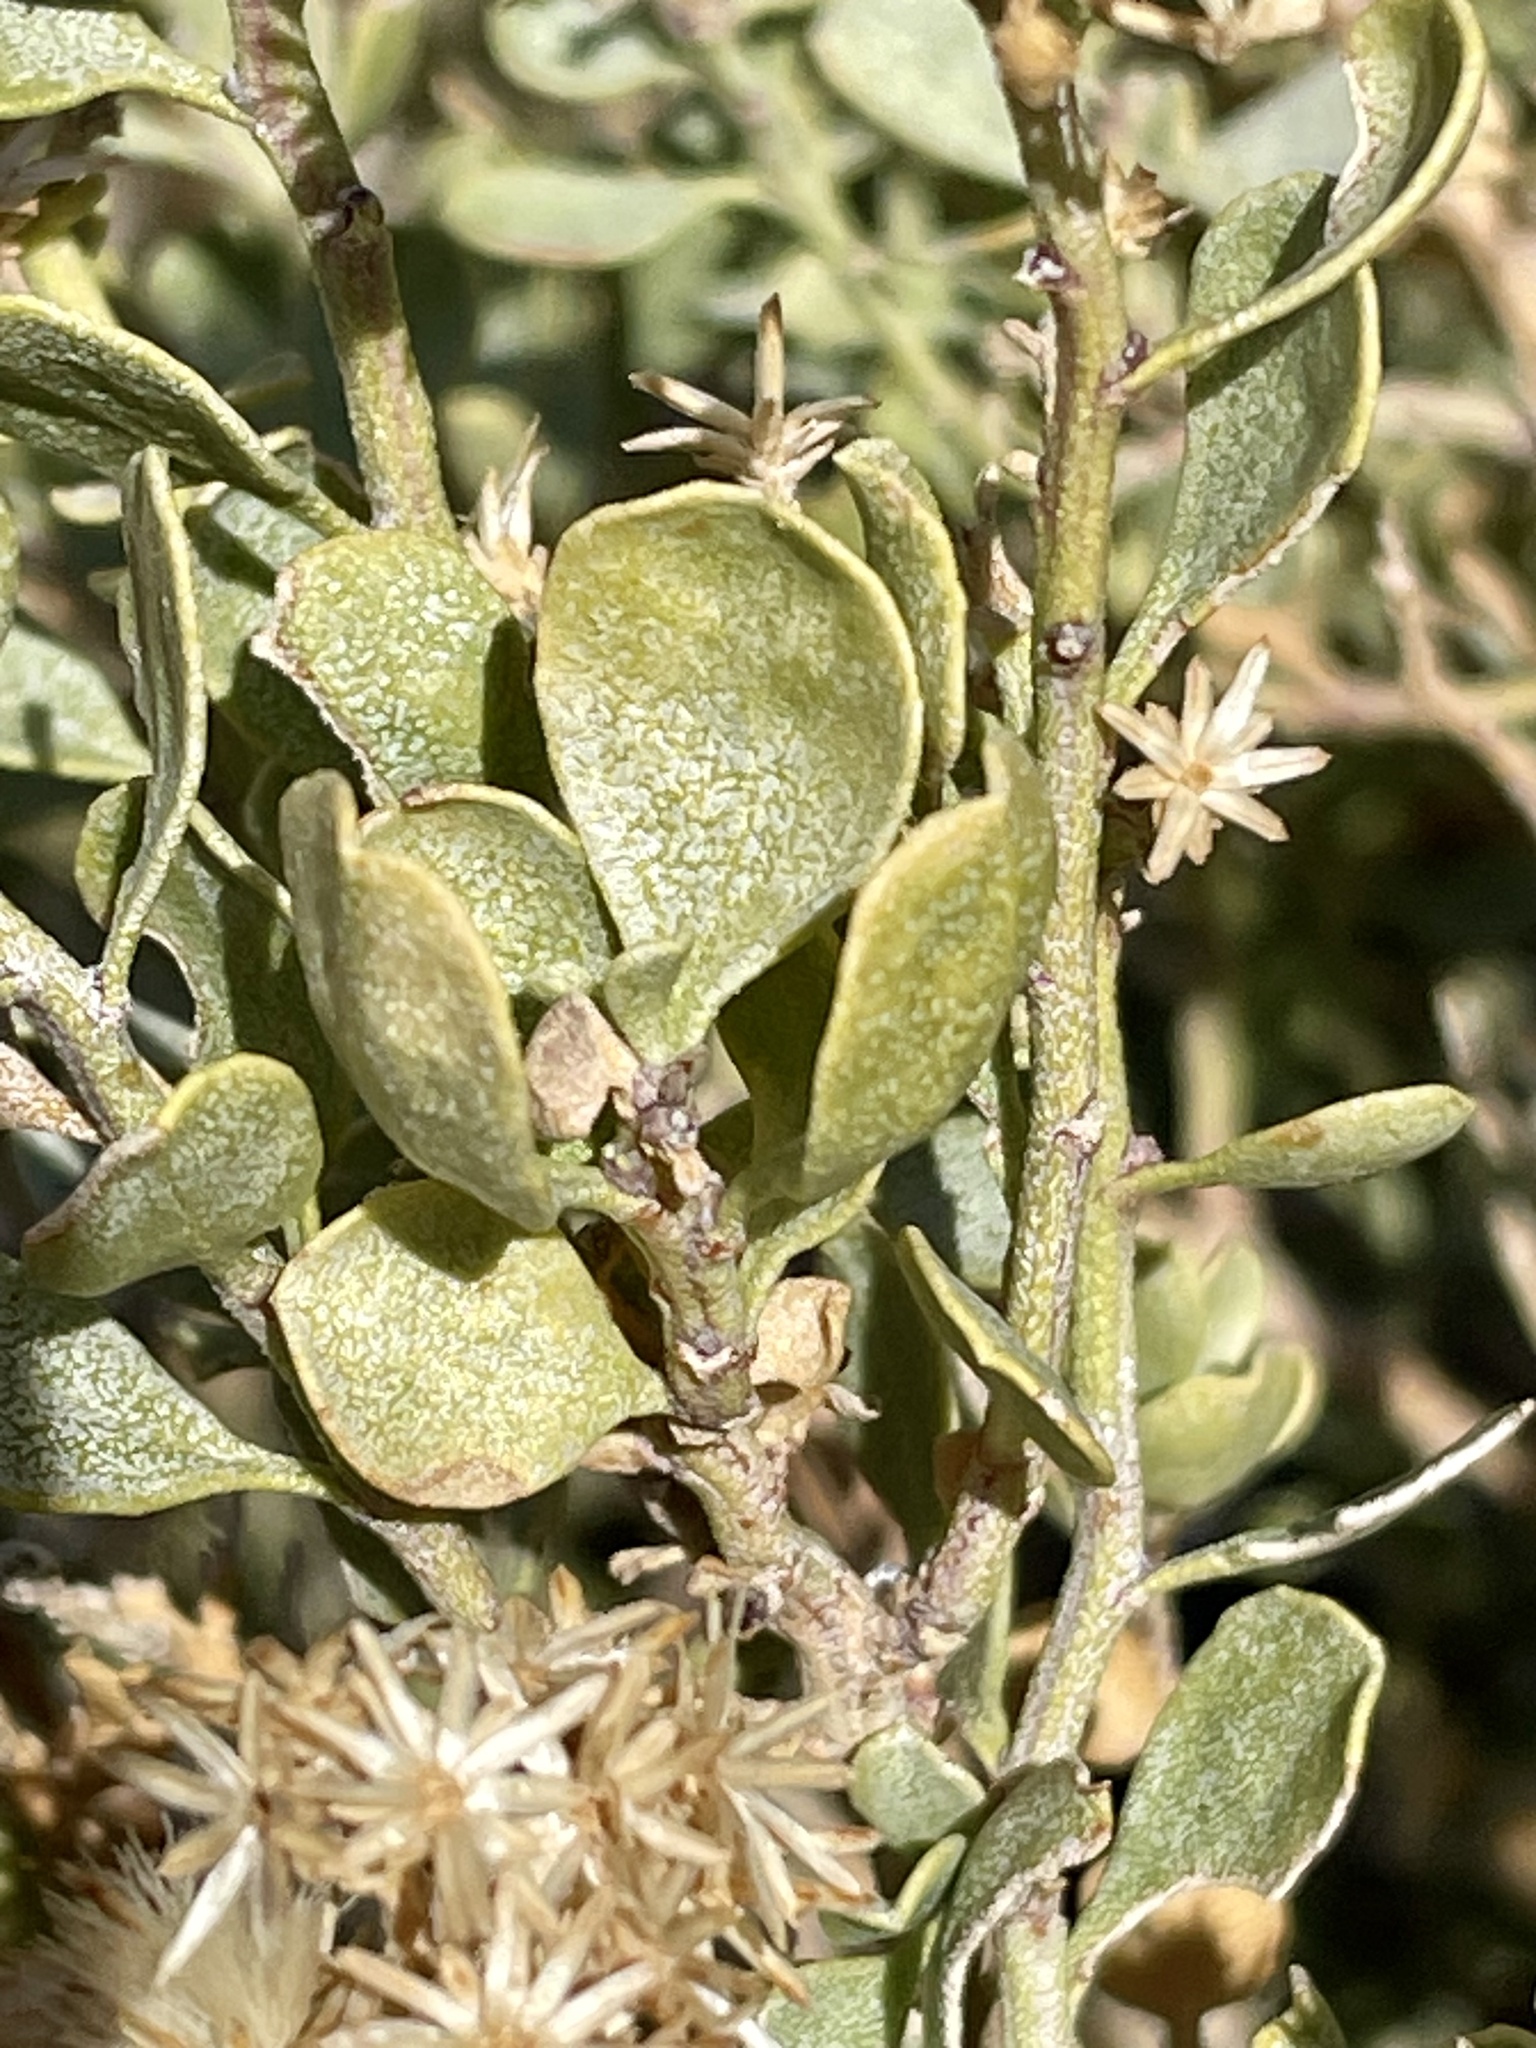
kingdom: Plantae
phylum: Tracheophyta
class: Magnoliopsida
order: Asterales
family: Asteraceae
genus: Ericameria
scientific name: Ericameria cuneata
